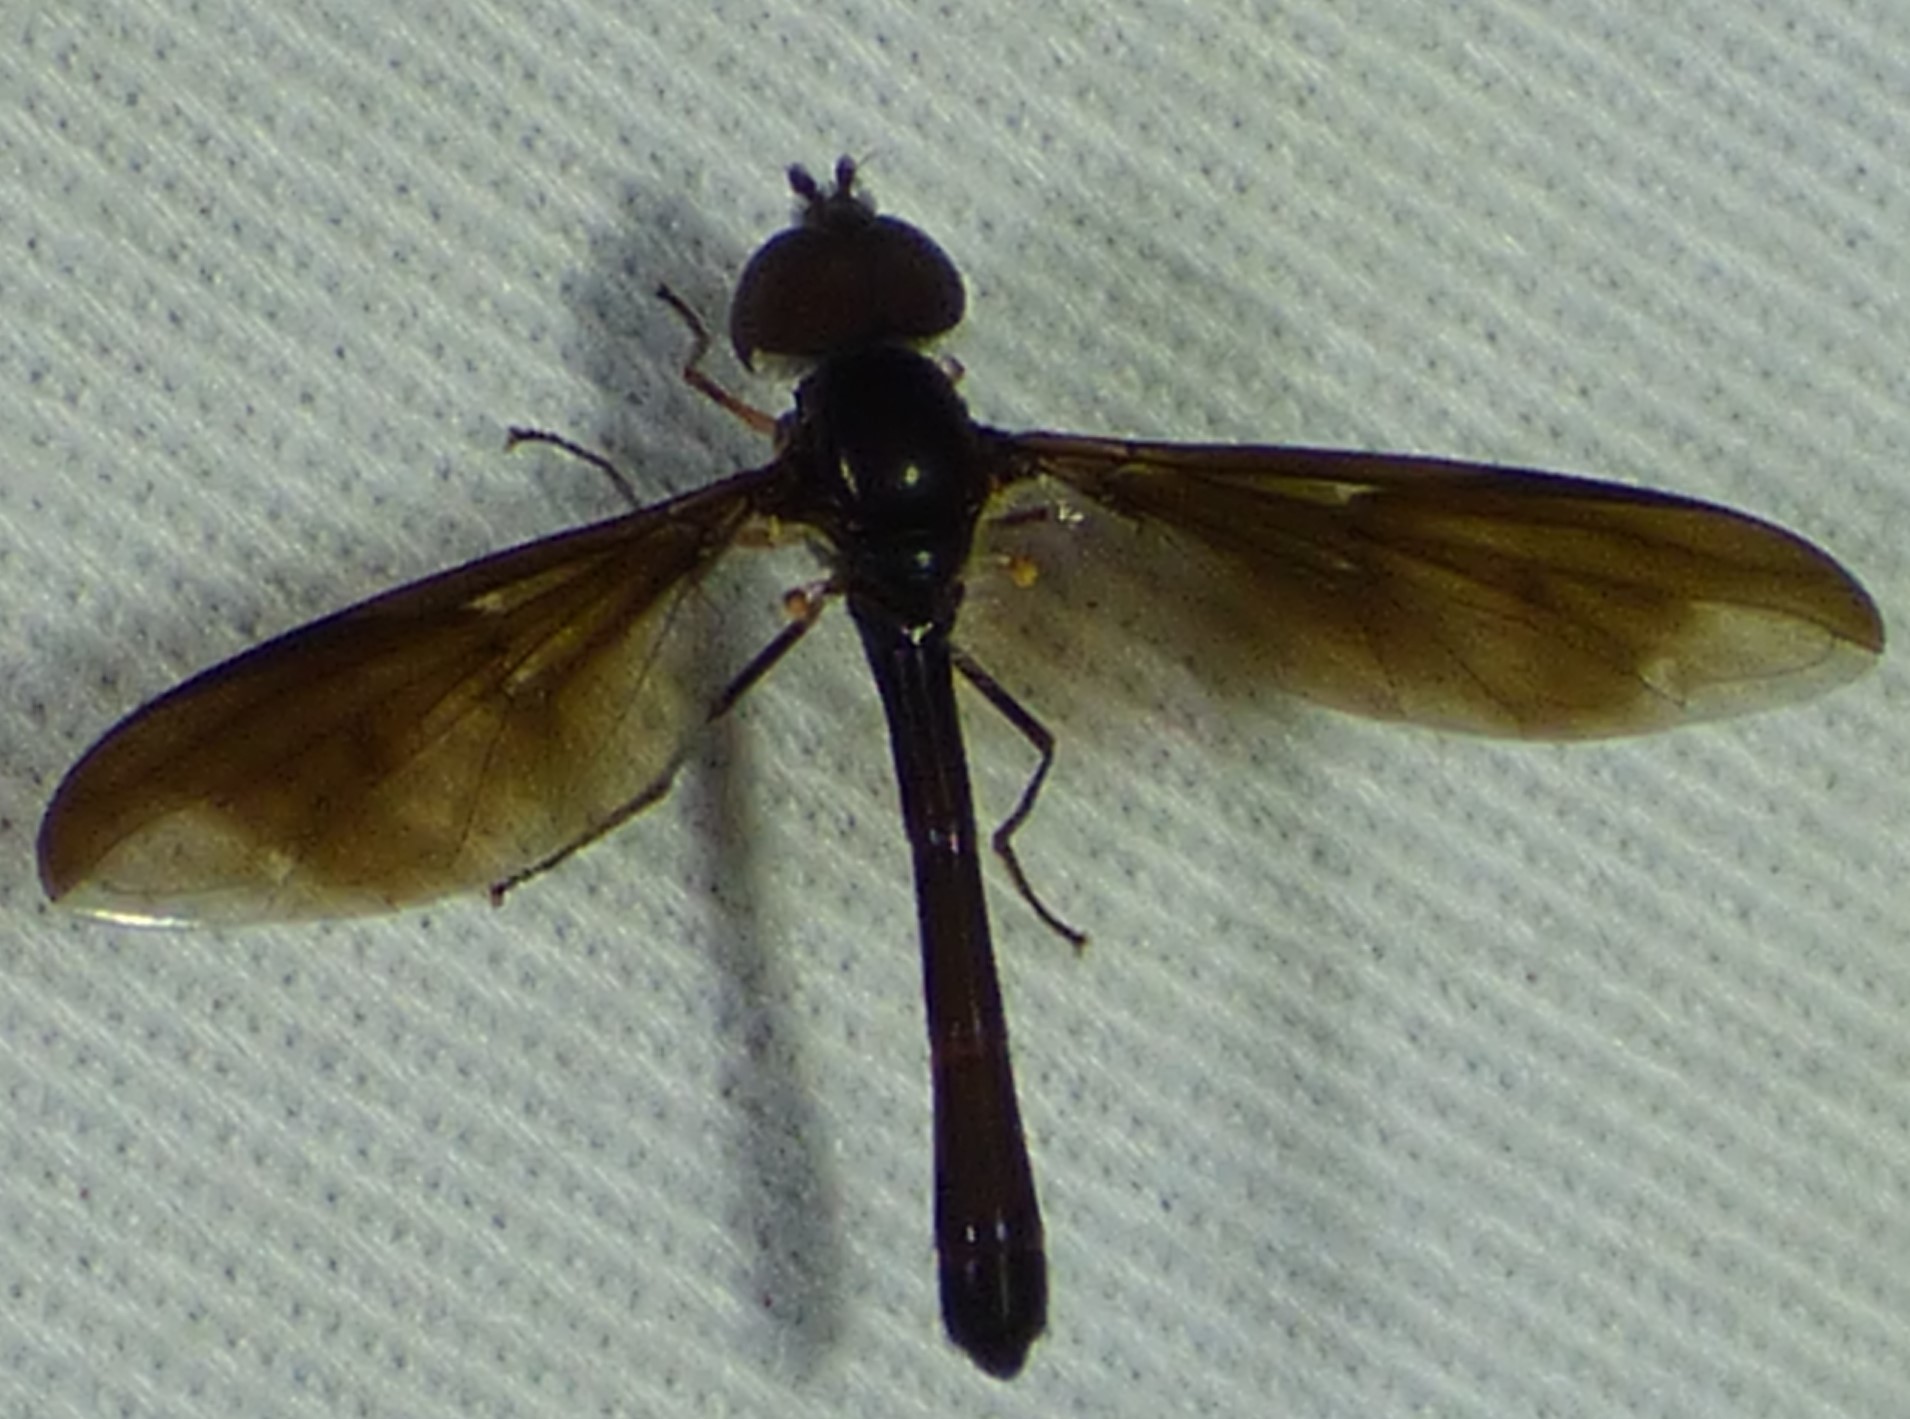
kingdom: Animalia
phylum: Arthropoda
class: Insecta
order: Diptera
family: Syrphidae
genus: Ocyptamus
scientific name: Ocyptamus fuscipennis
